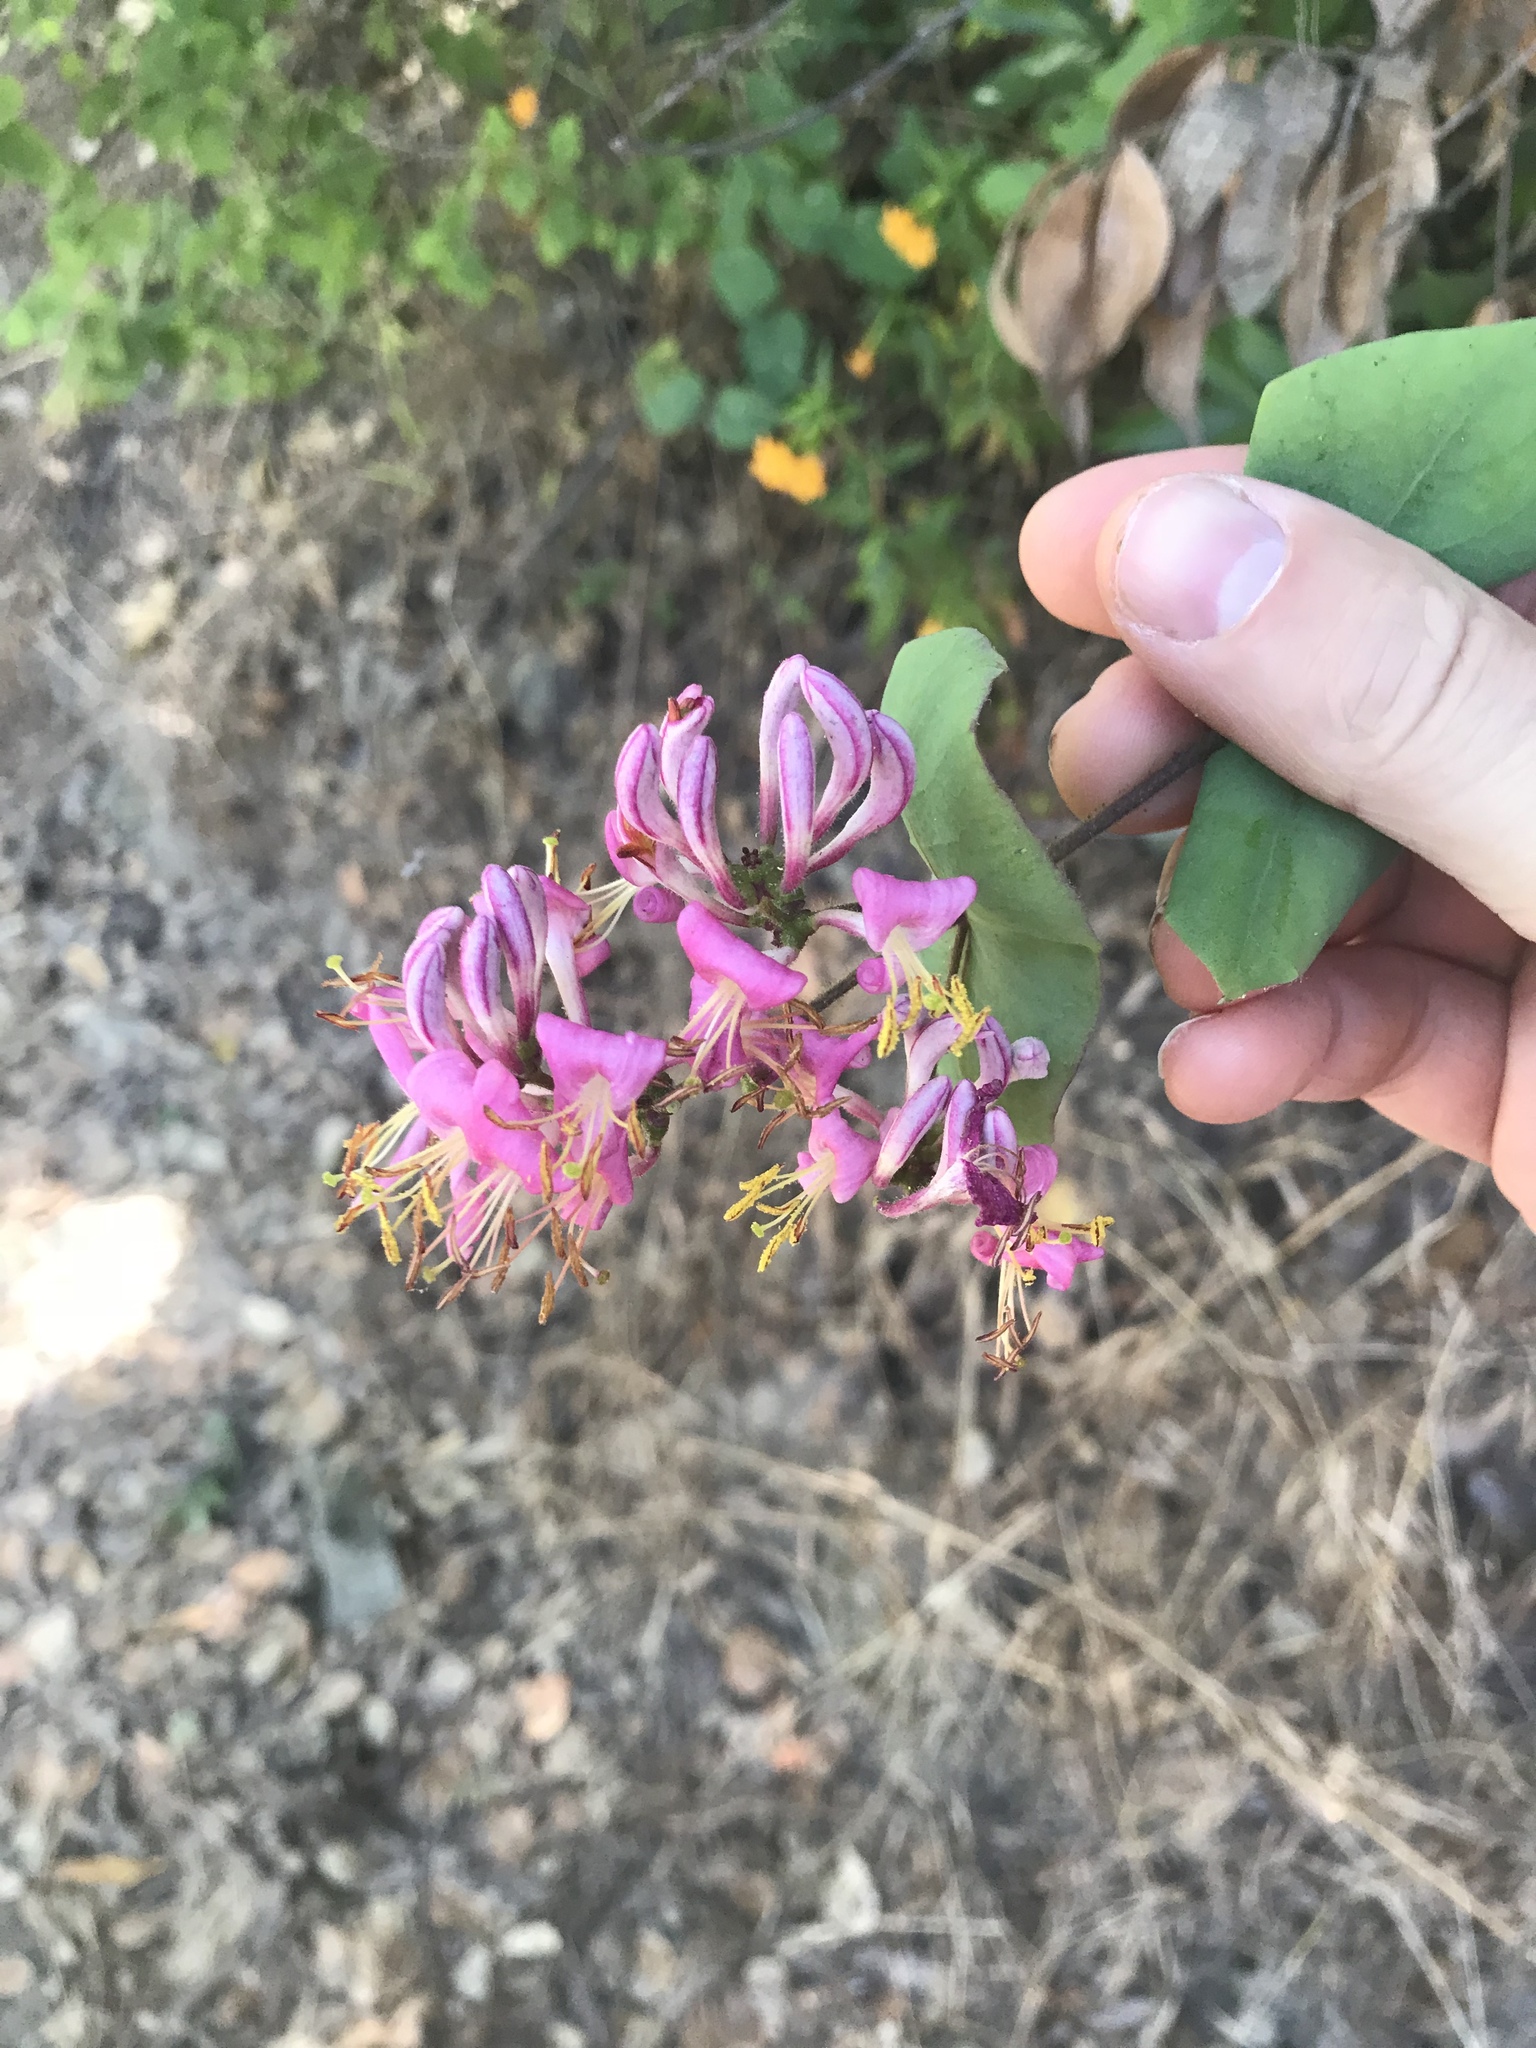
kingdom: Plantae
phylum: Tracheophyta
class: Magnoliopsida
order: Dipsacales
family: Caprifoliaceae
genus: Lonicera
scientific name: Lonicera hispidula
